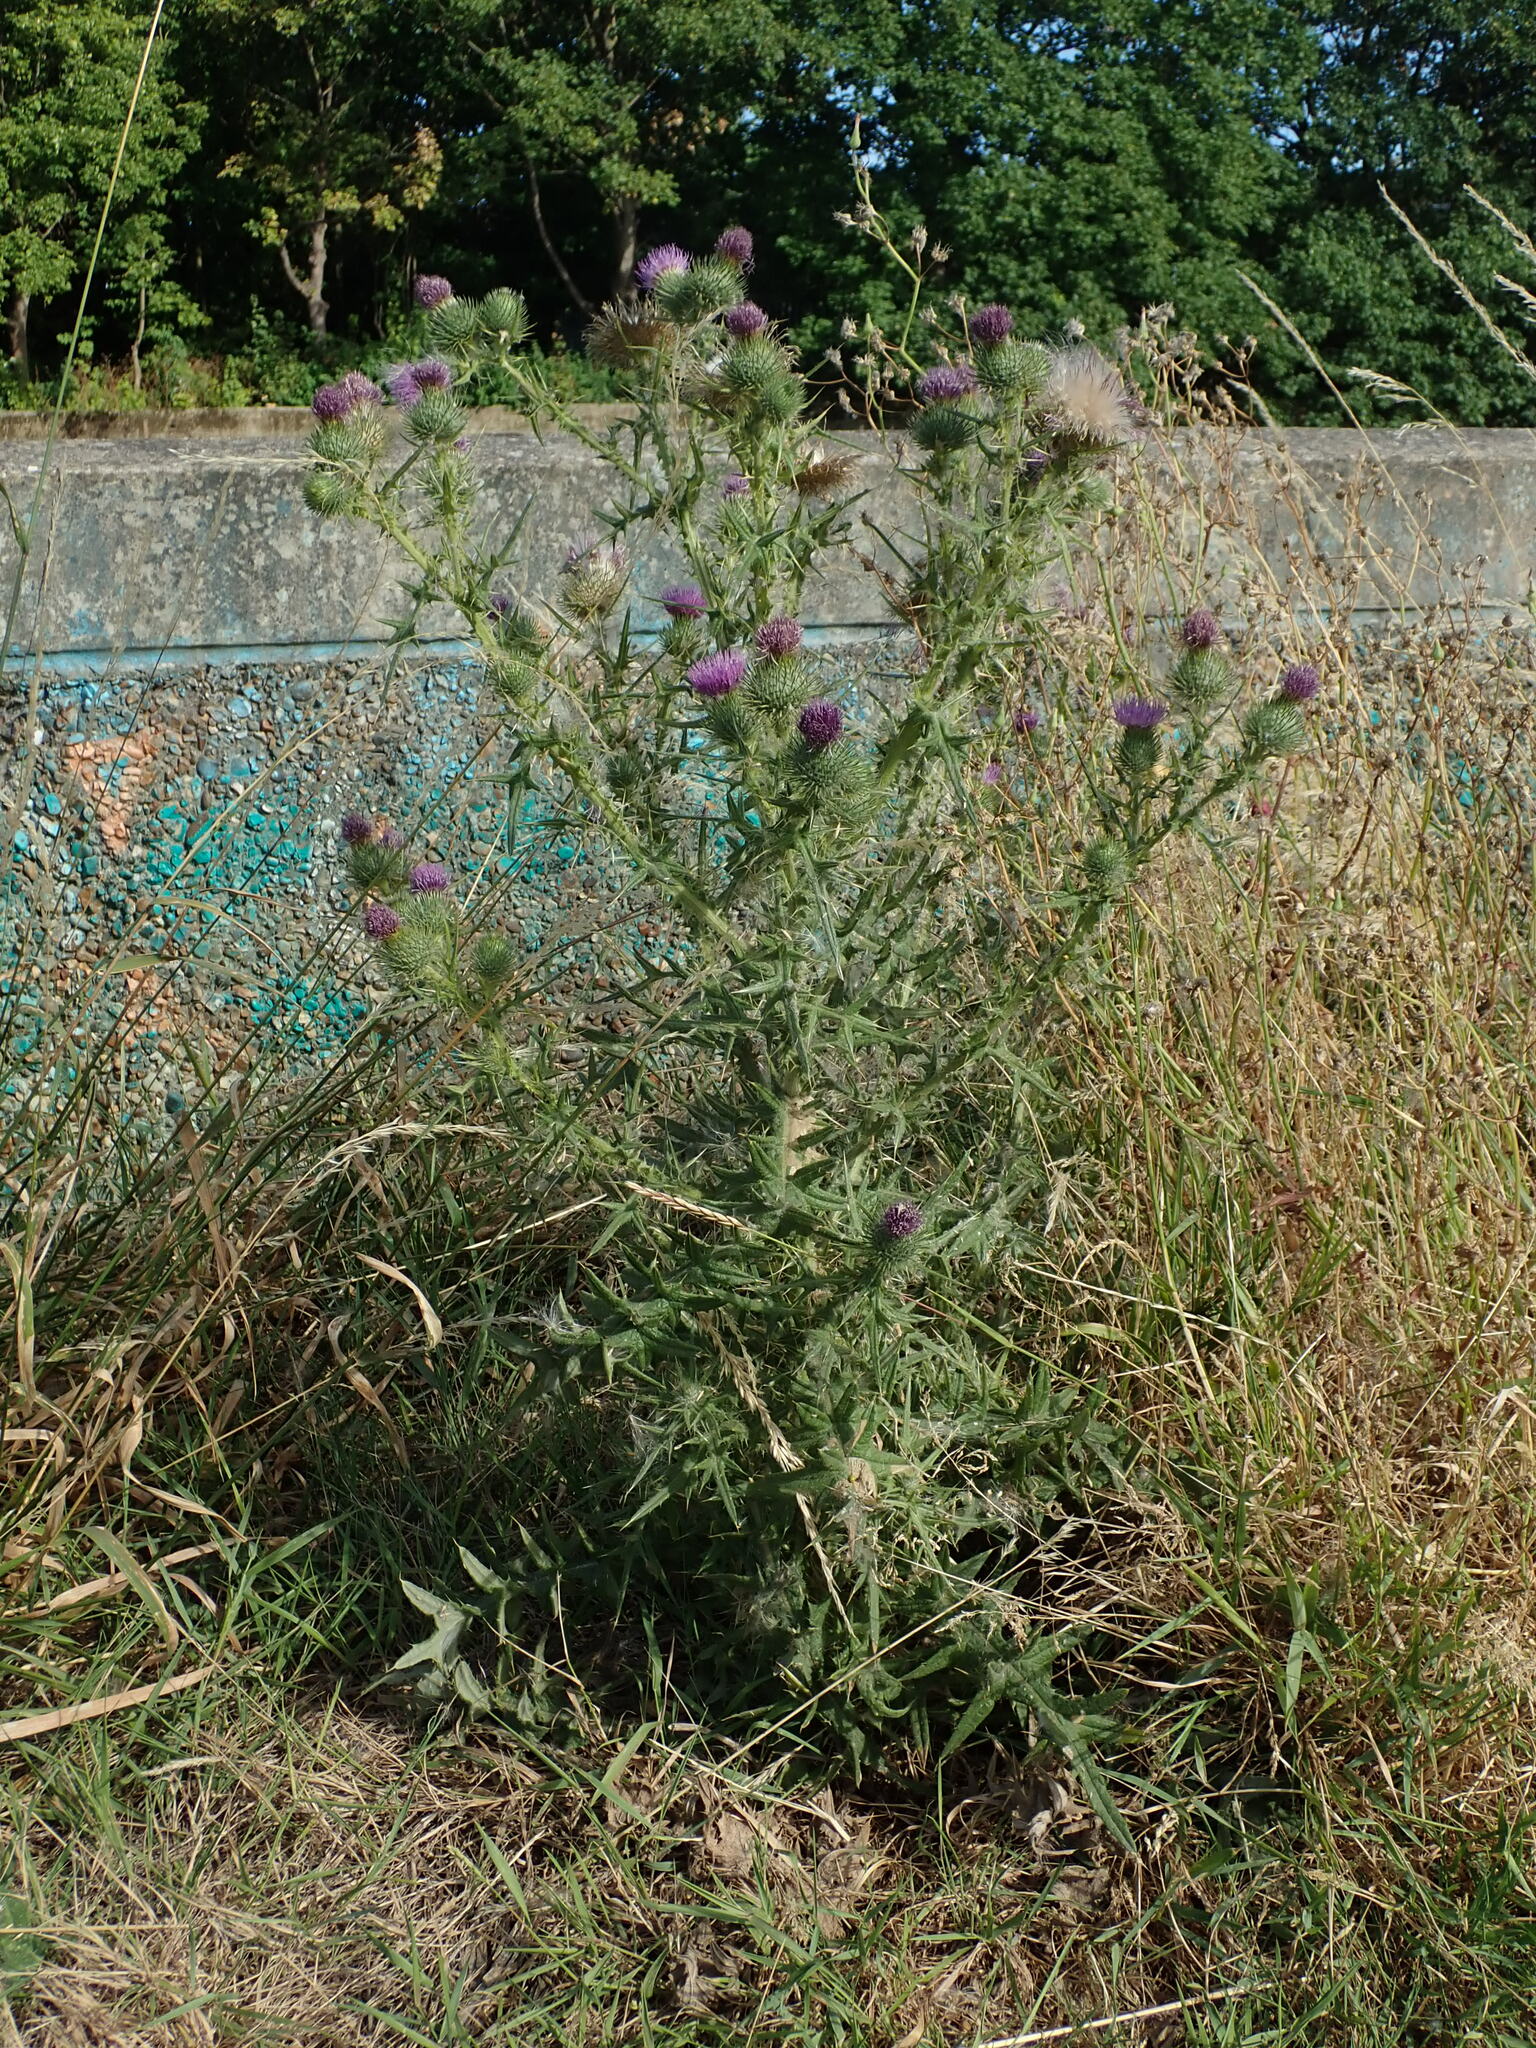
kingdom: Plantae
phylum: Tracheophyta
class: Magnoliopsida
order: Asterales
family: Asteraceae
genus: Cirsium
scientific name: Cirsium vulgare
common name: Bull thistle
